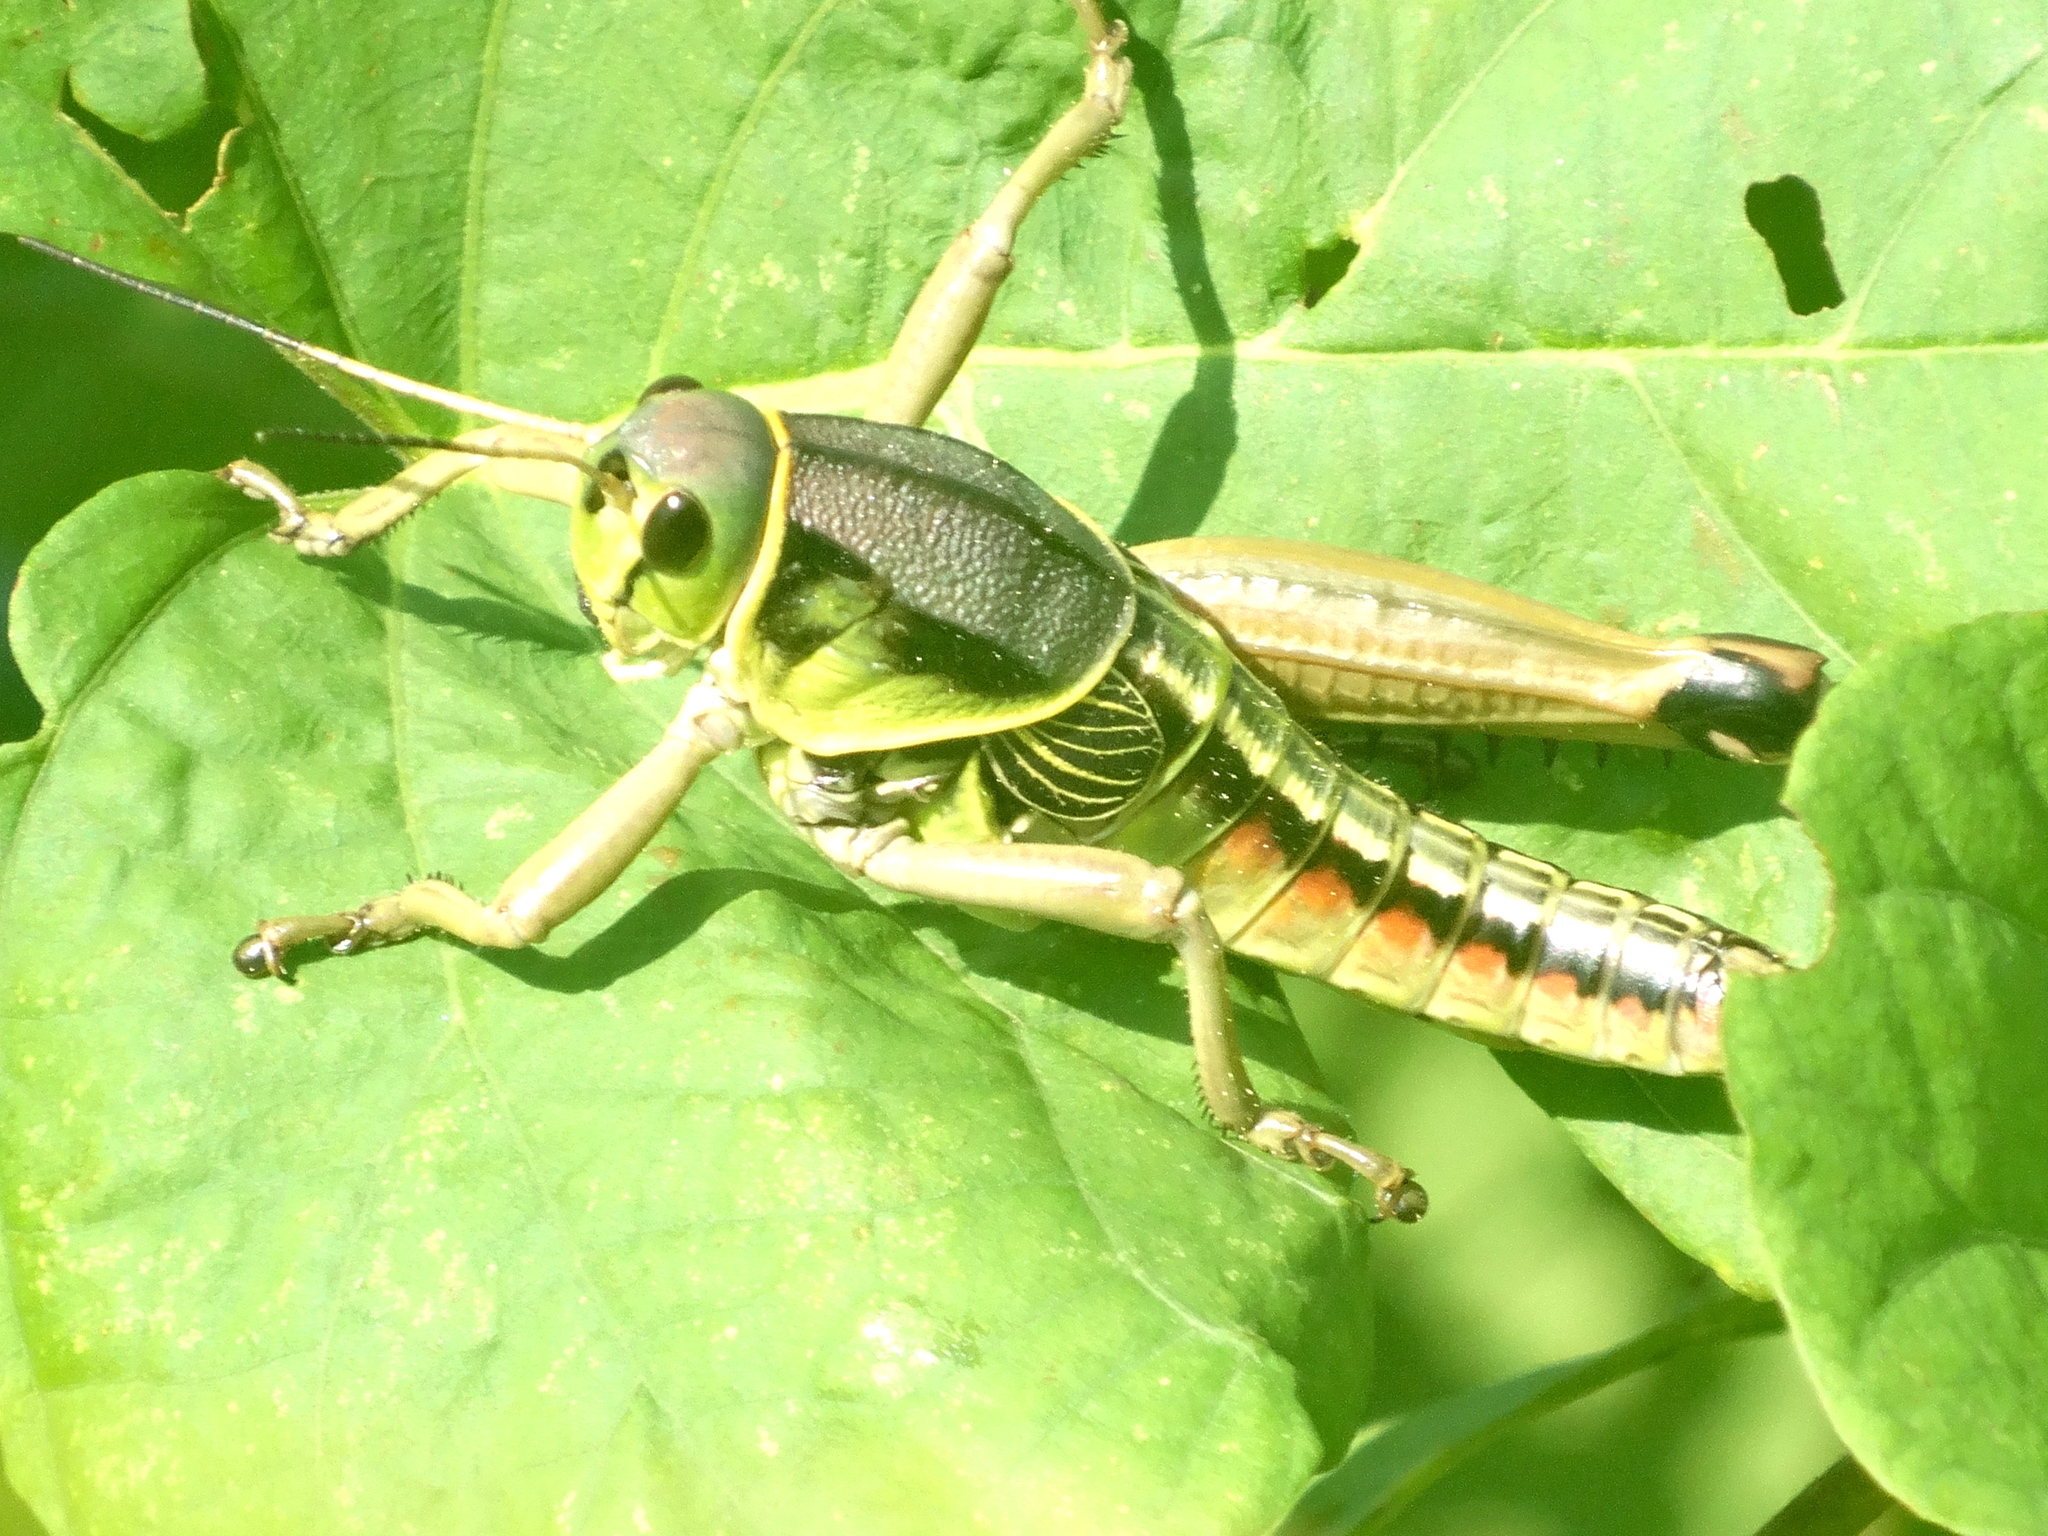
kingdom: Animalia
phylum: Arthropoda
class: Insecta
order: Orthoptera
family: Romaleidae
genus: Brachystola
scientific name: Brachystola behrensii
